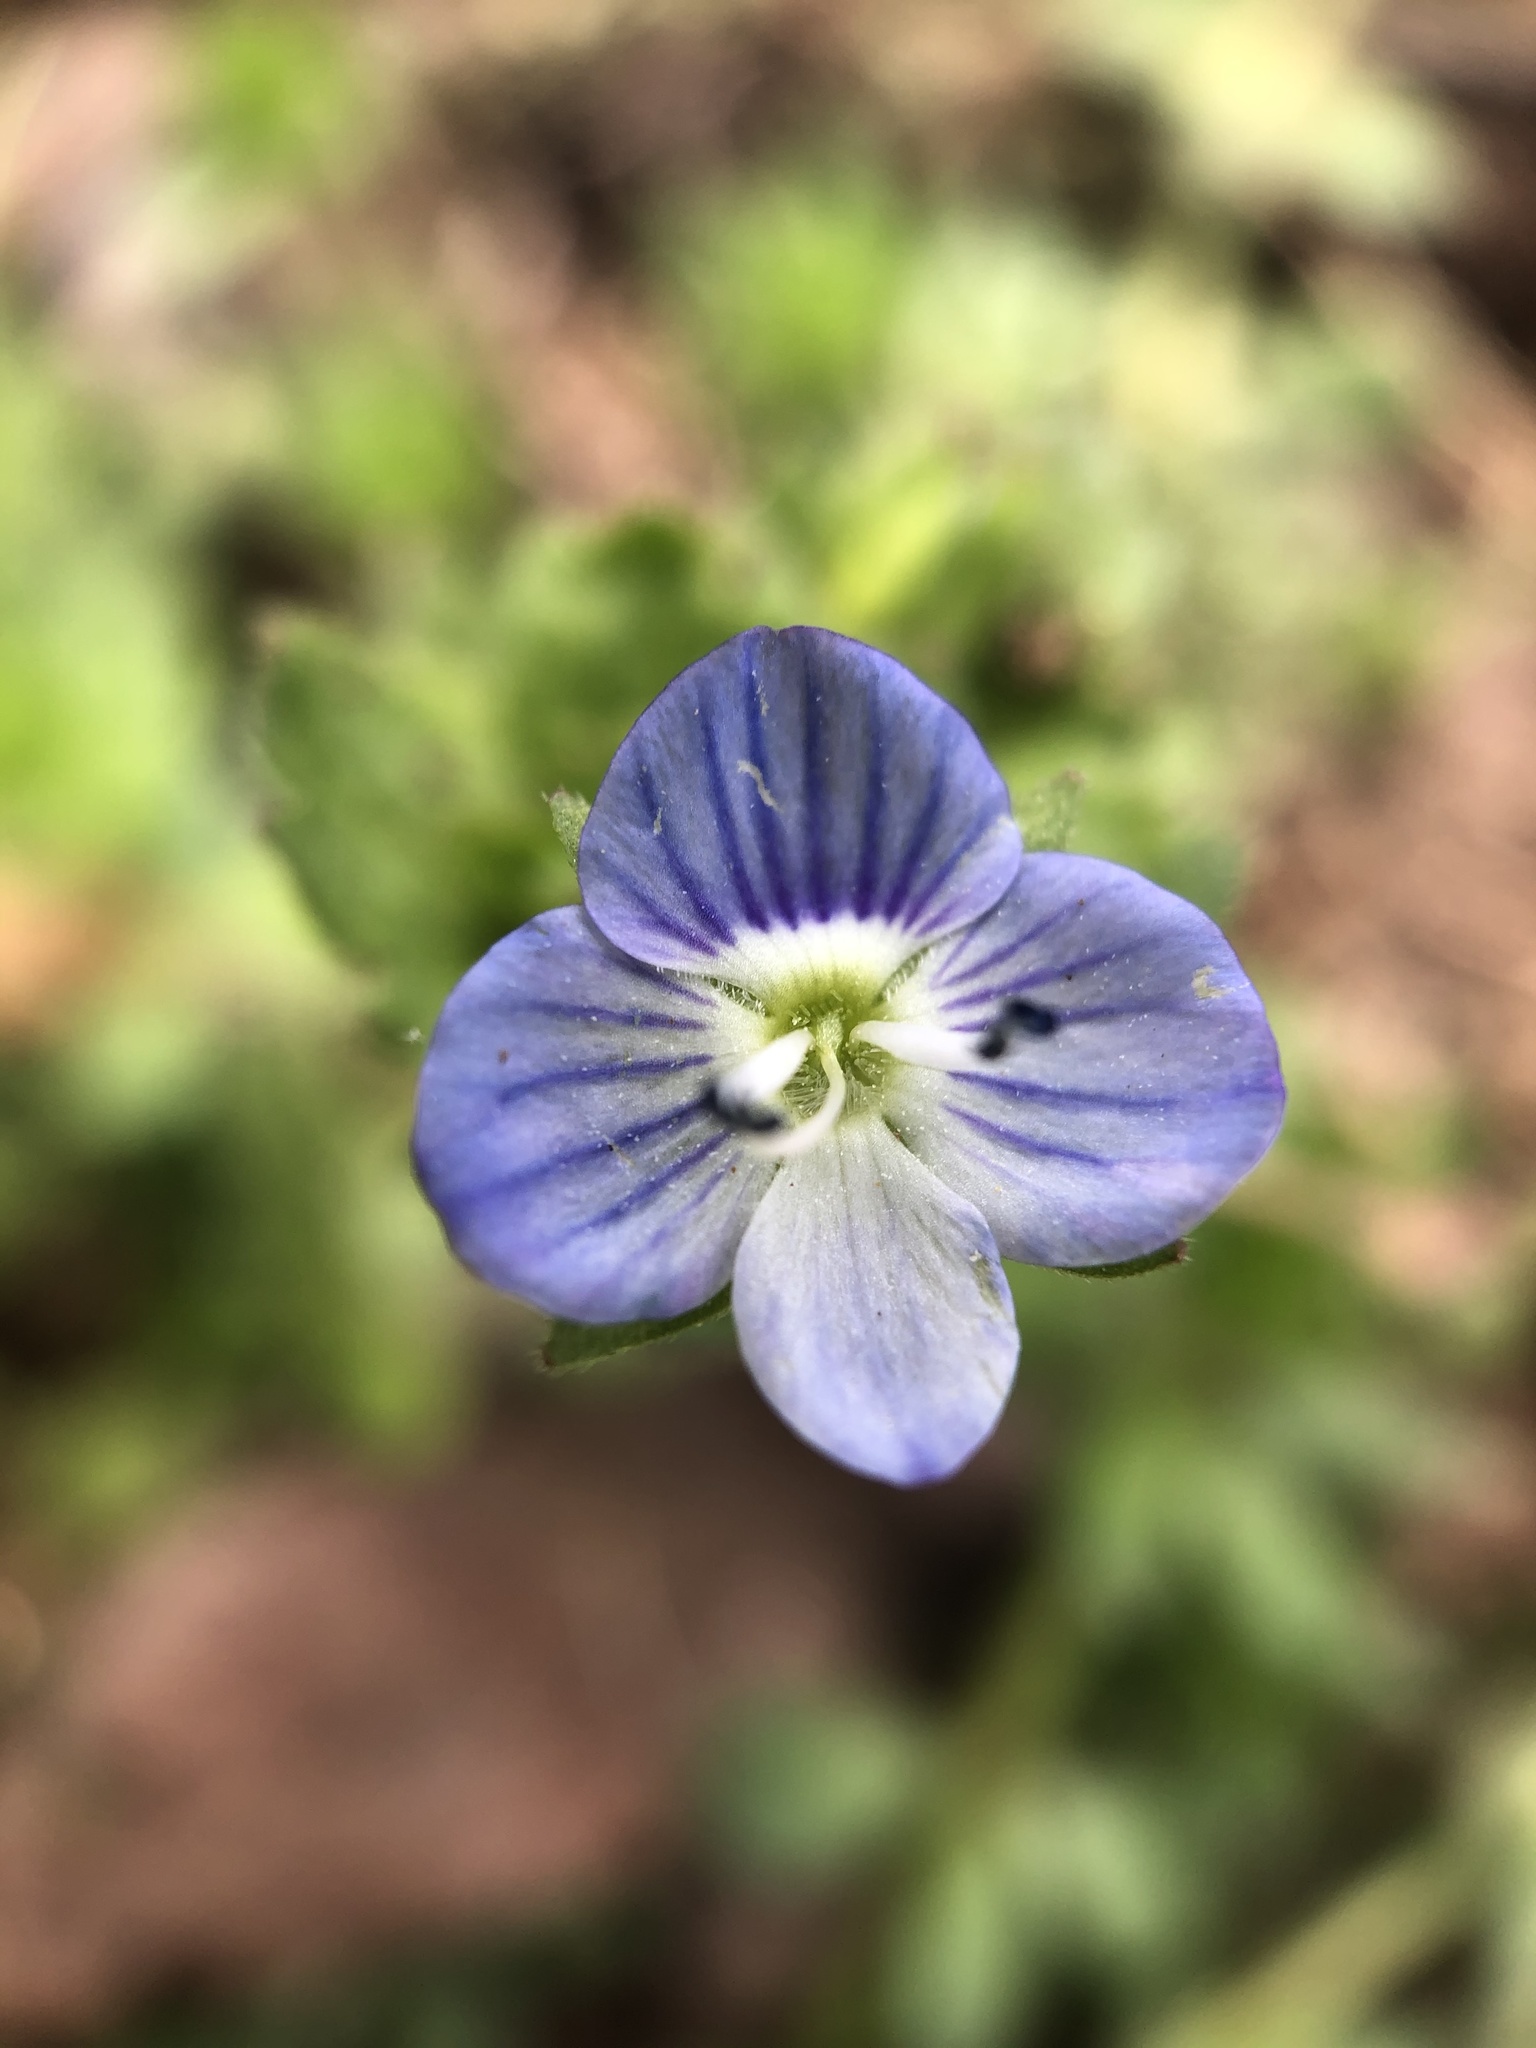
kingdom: Plantae
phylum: Tracheophyta
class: Magnoliopsida
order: Lamiales
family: Plantaginaceae
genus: Veronica
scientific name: Veronica persica
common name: Common field-speedwell
